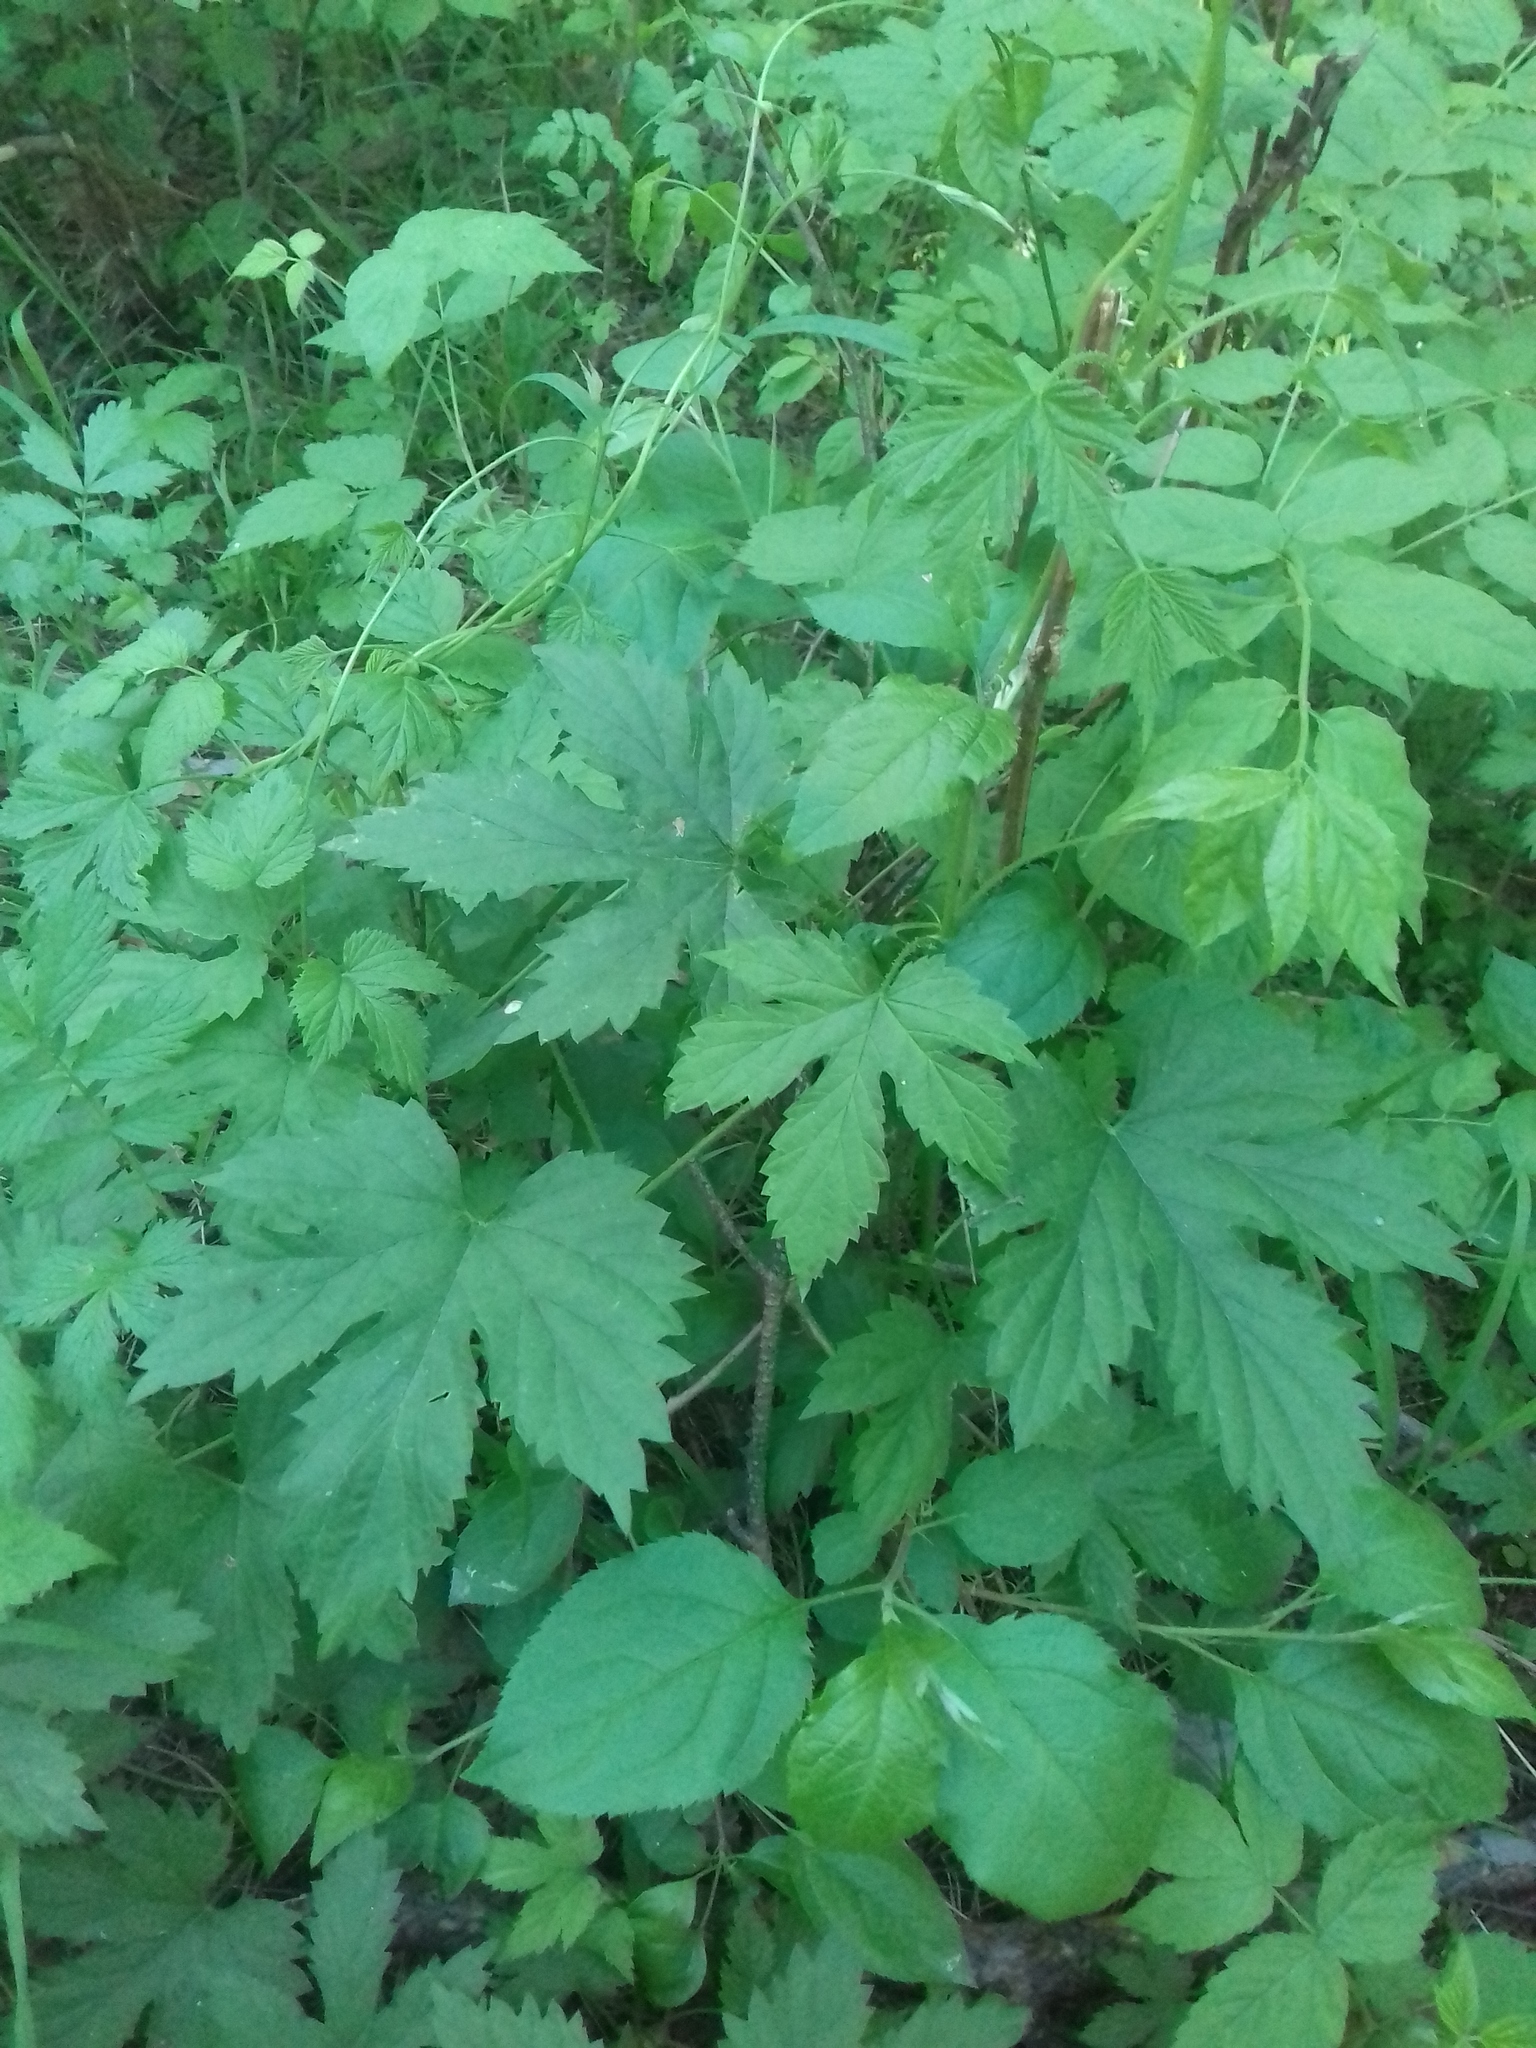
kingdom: Plantae
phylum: Tracheophyta
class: Magnoliopsida
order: Rosales
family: Cannabaceae
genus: Humulus
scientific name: Humulus lupulus
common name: Hop
